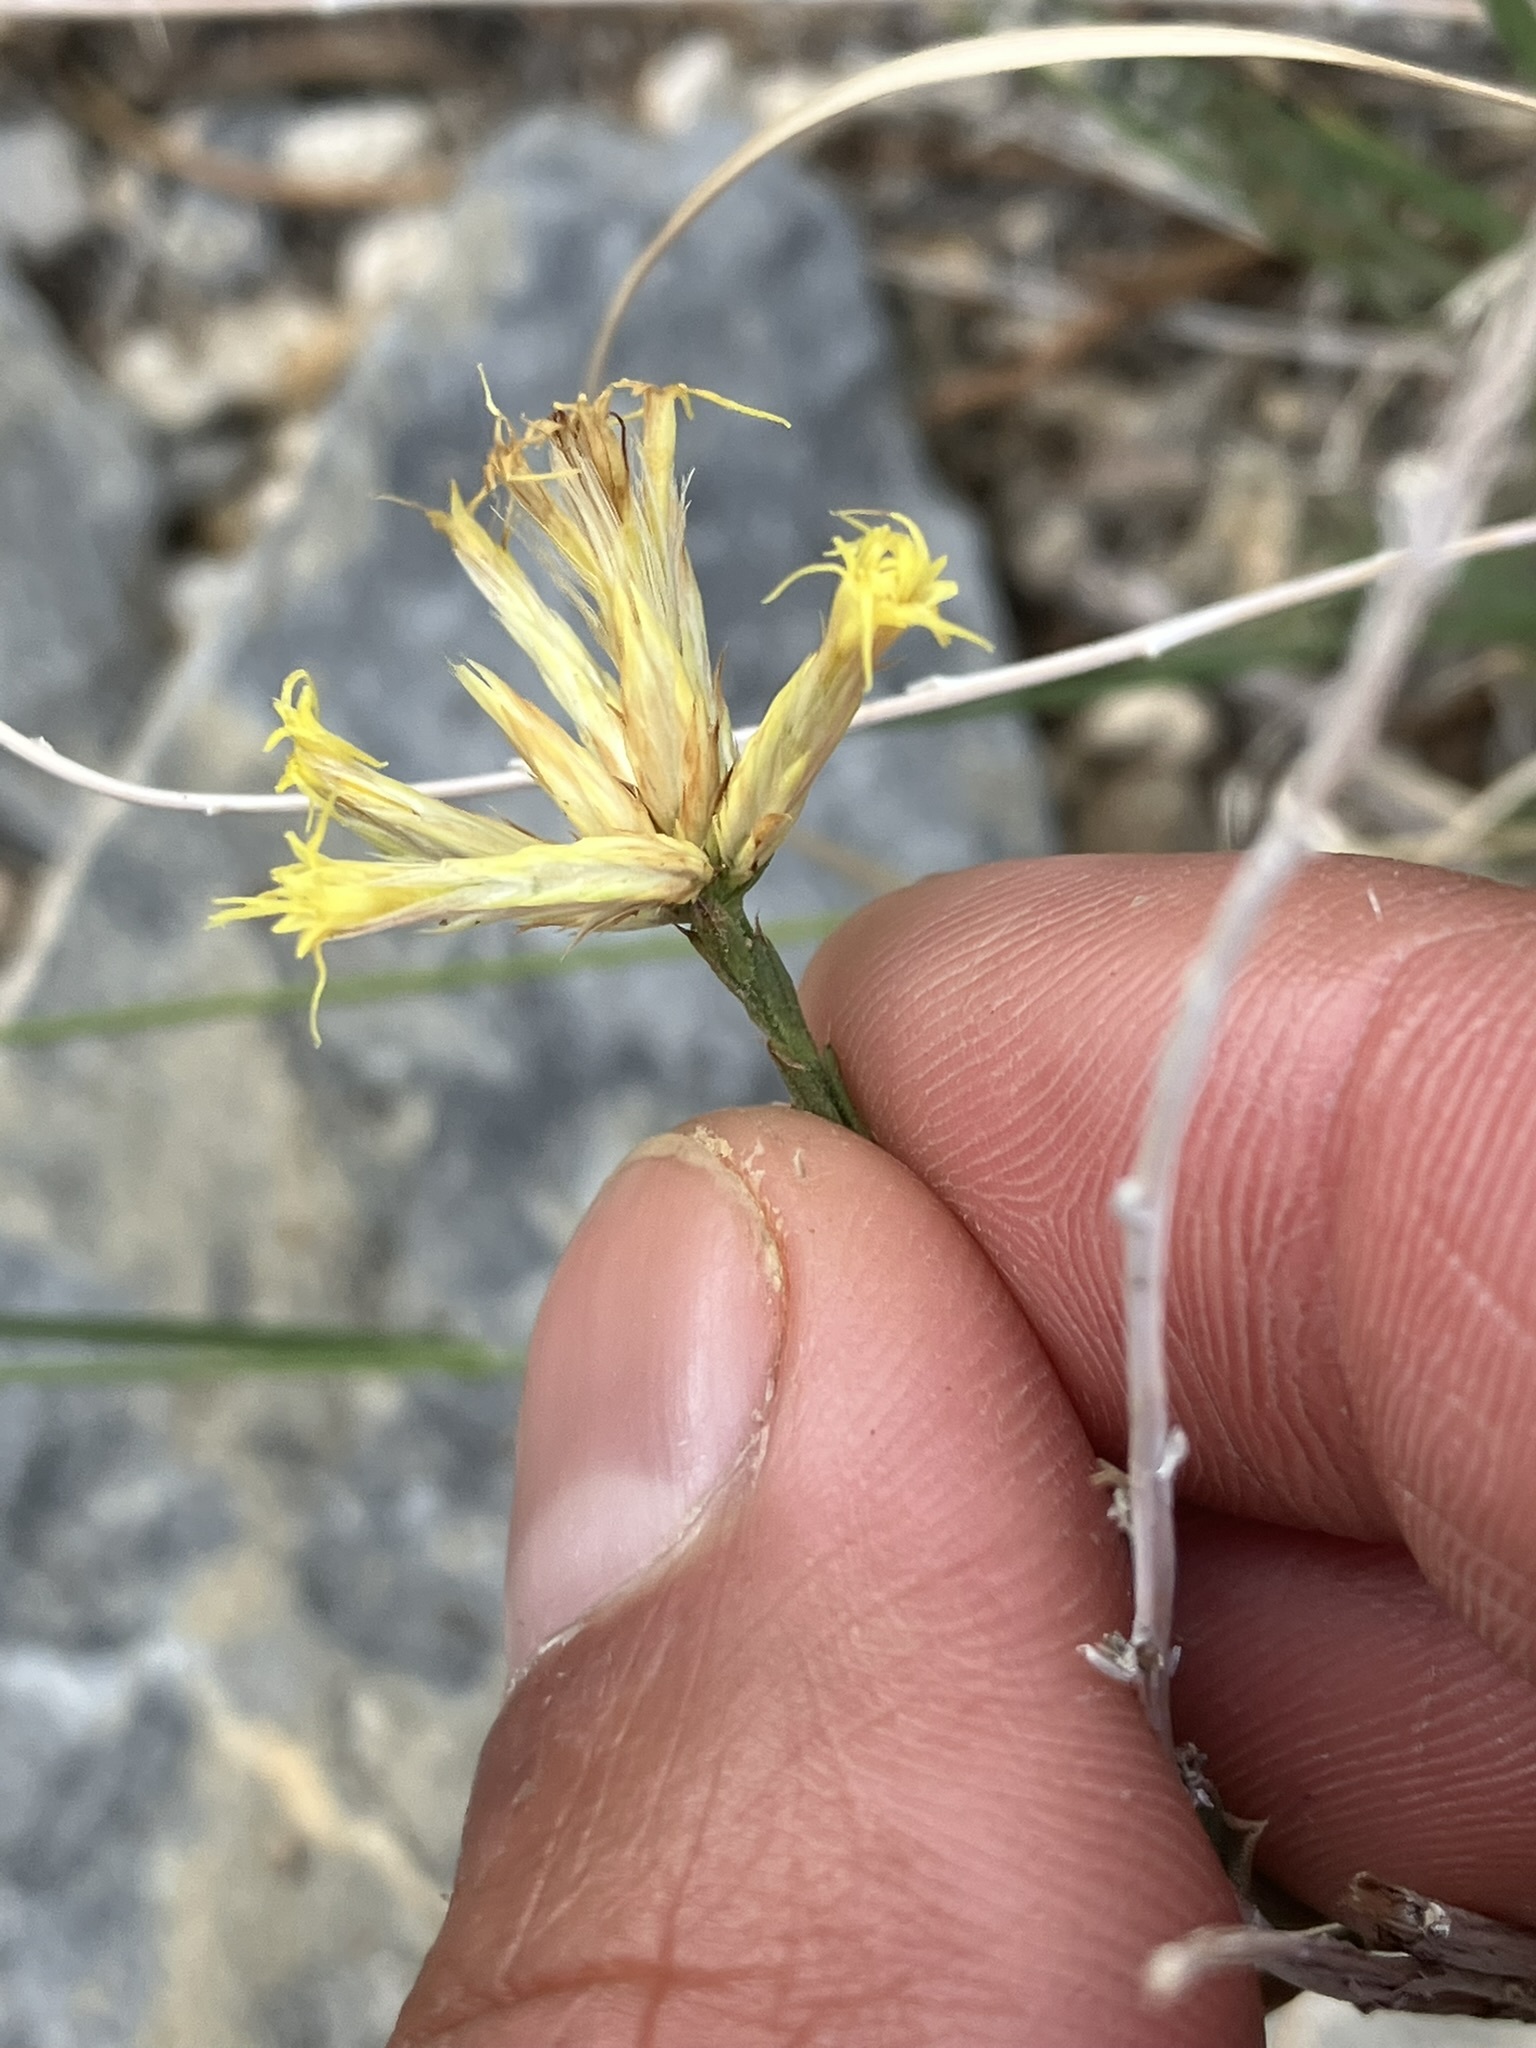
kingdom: Plantae
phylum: Tracheophyta
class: Magnoliopsida
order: Asterales
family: Asteraceae
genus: Chrysothamnus
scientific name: Chrysothamnus depressus
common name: Long-flower rabbitbrush
